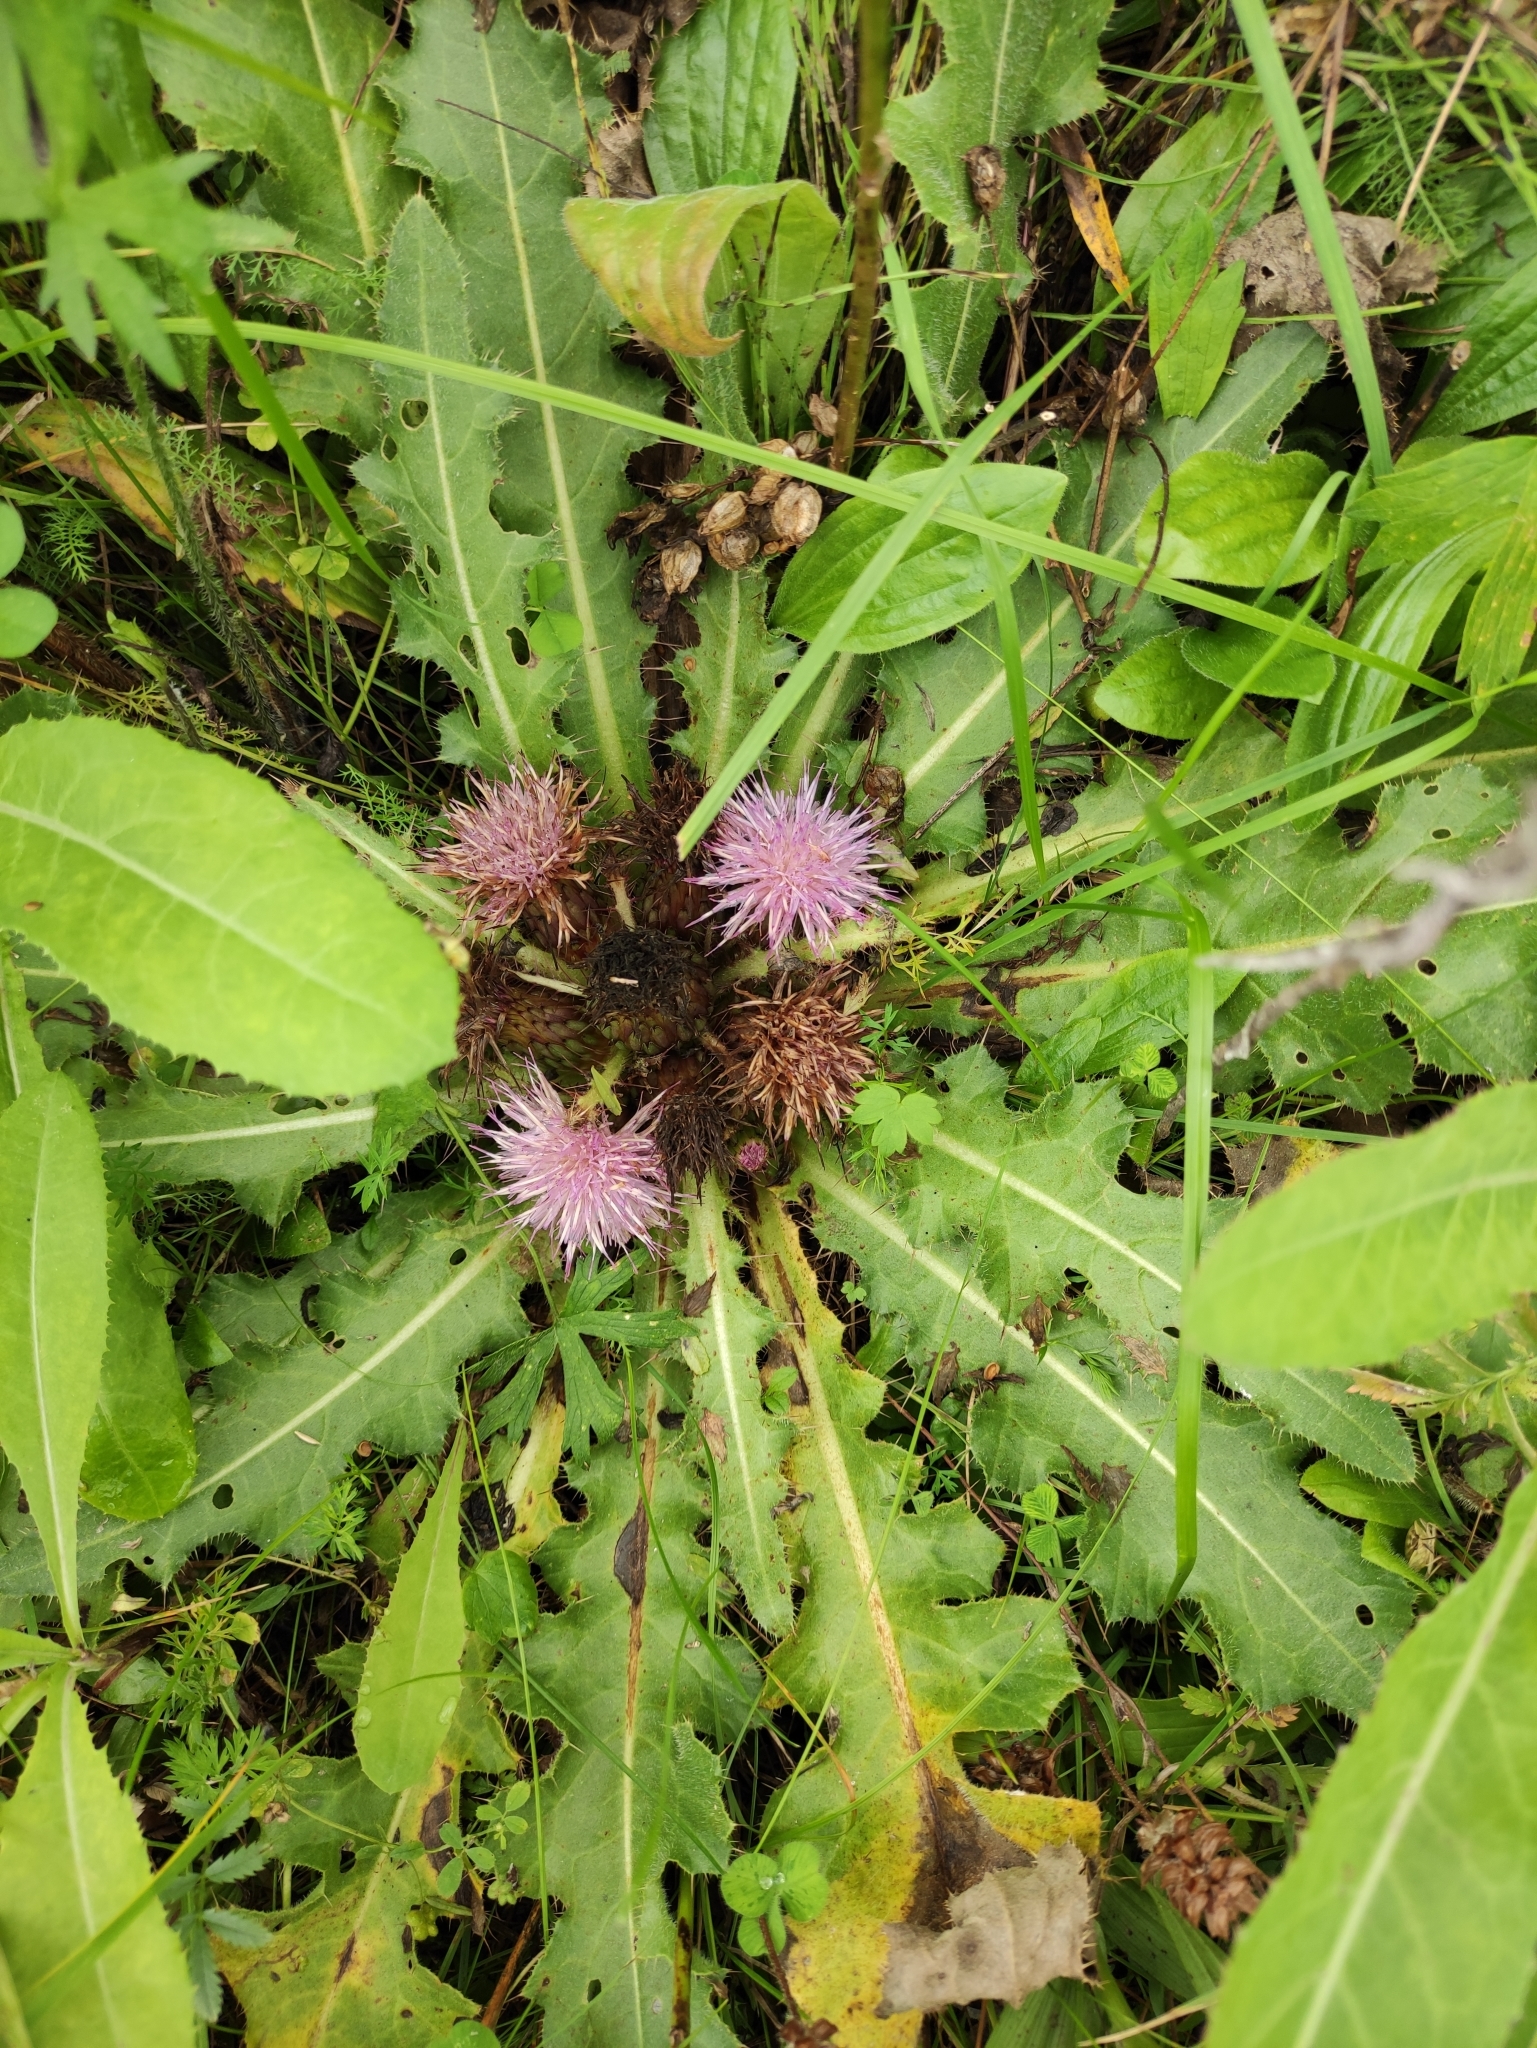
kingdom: Plantae
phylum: Tracheophyta
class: Magnoliopsida
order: Asterales
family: Asteraceae
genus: Cirsium
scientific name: Cirsium esculentum
